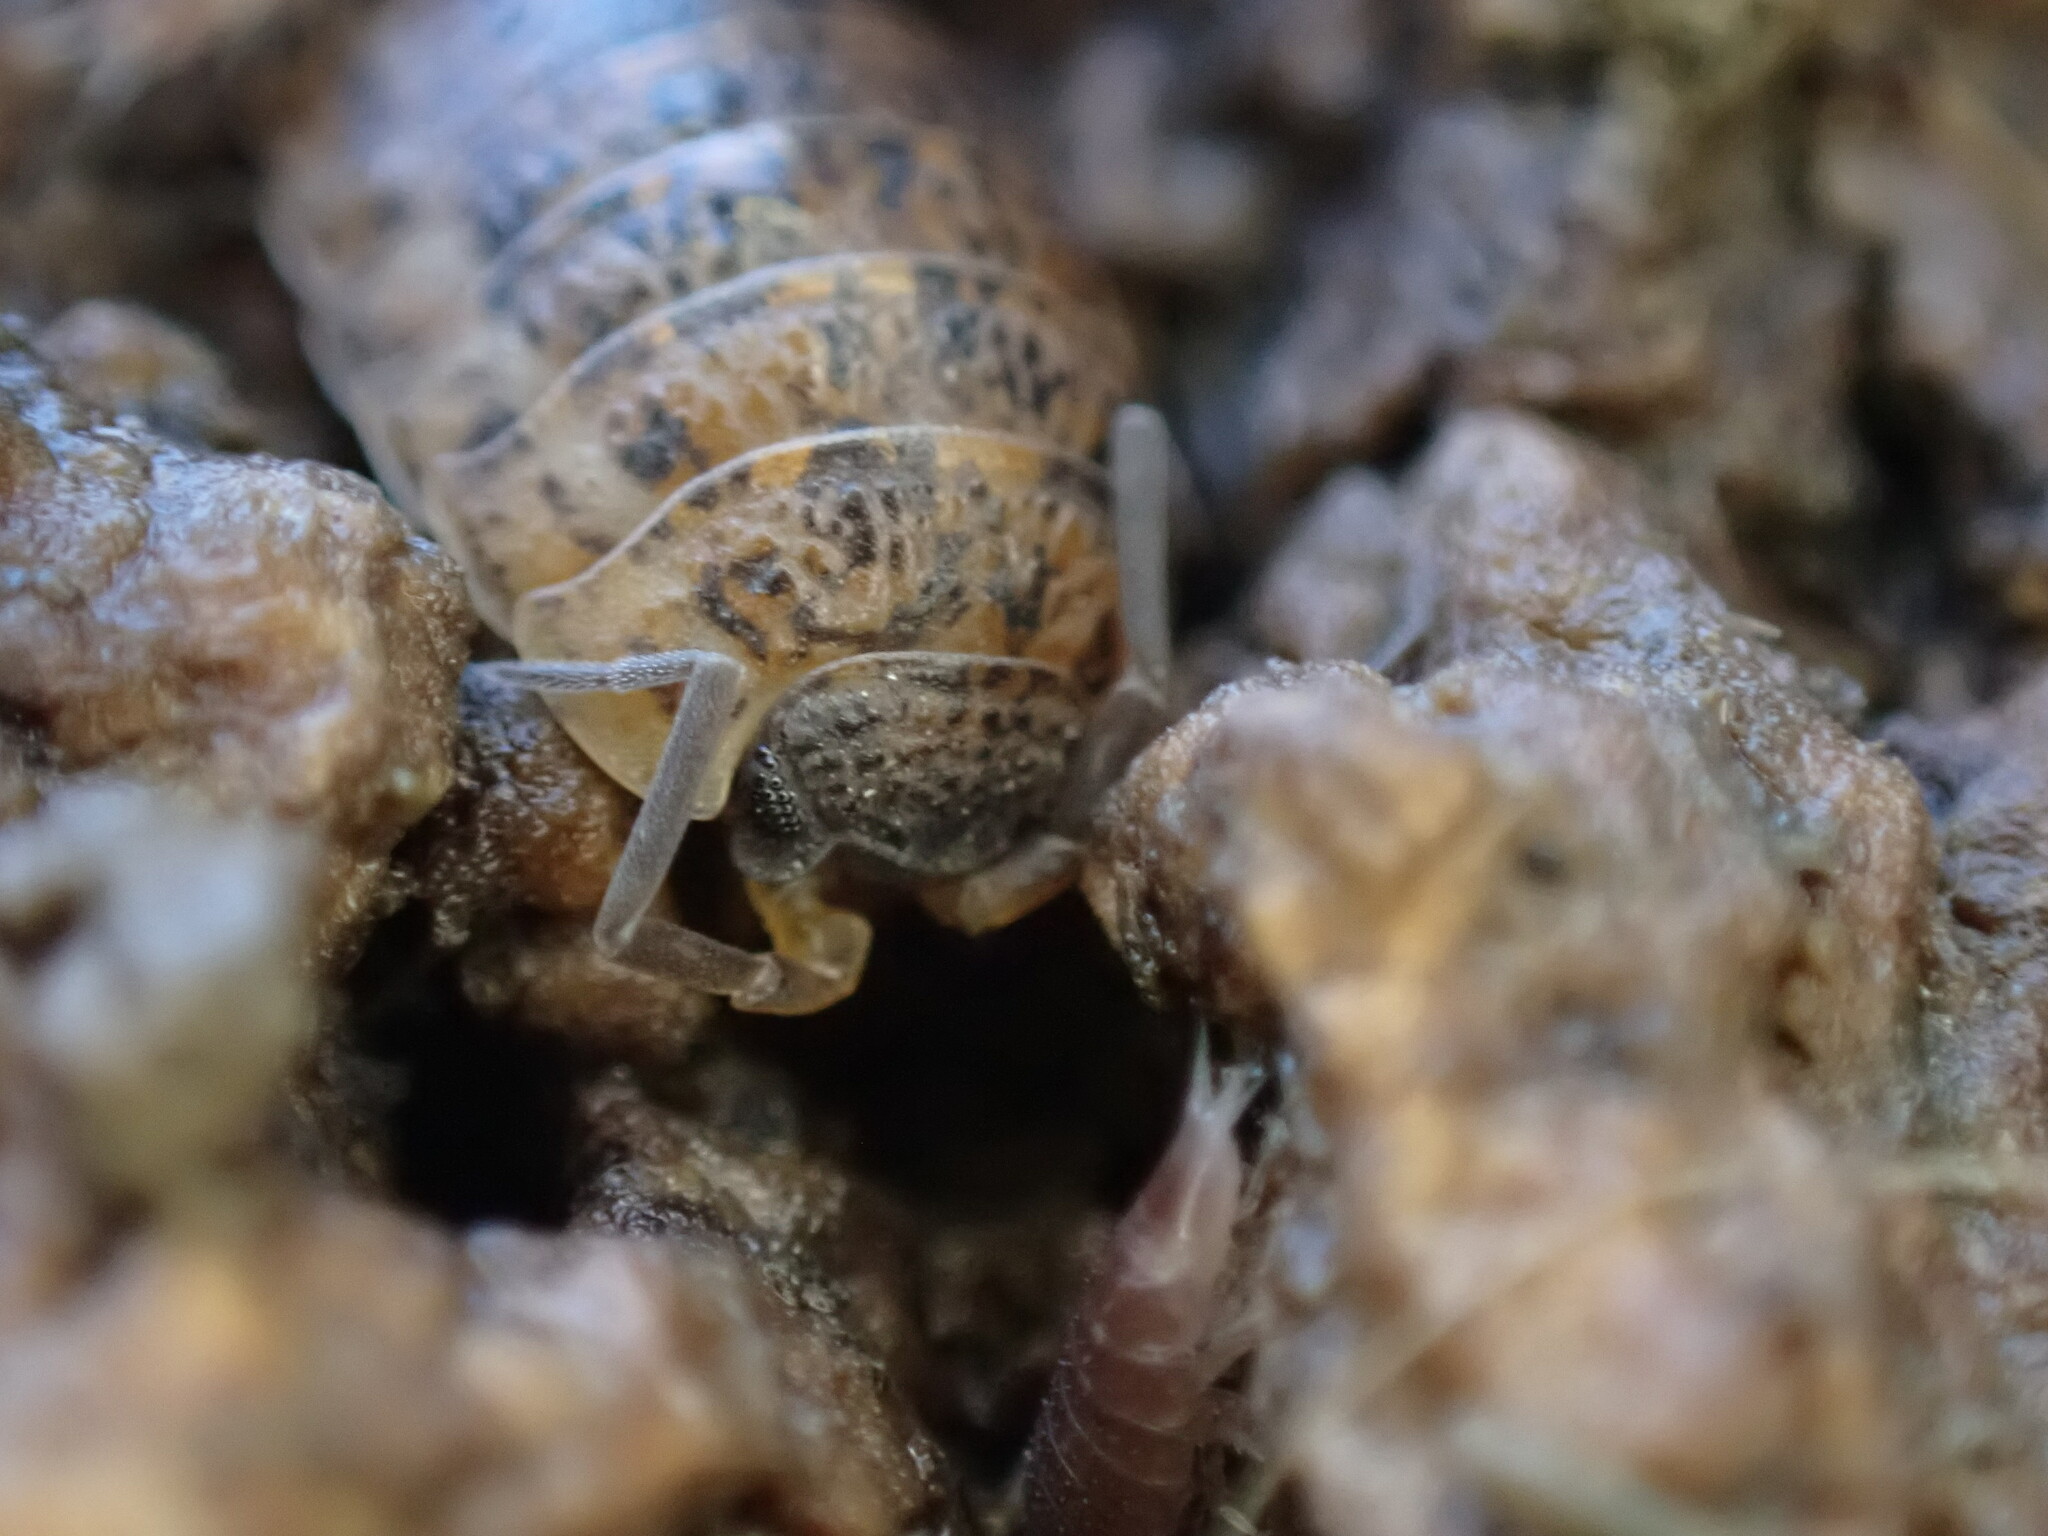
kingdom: Animalia
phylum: Arthropoda
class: Malacostraca
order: Isopoda
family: Trachelipodidae
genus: Trachelipus
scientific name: Trachelipus rathkii
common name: Isopod
